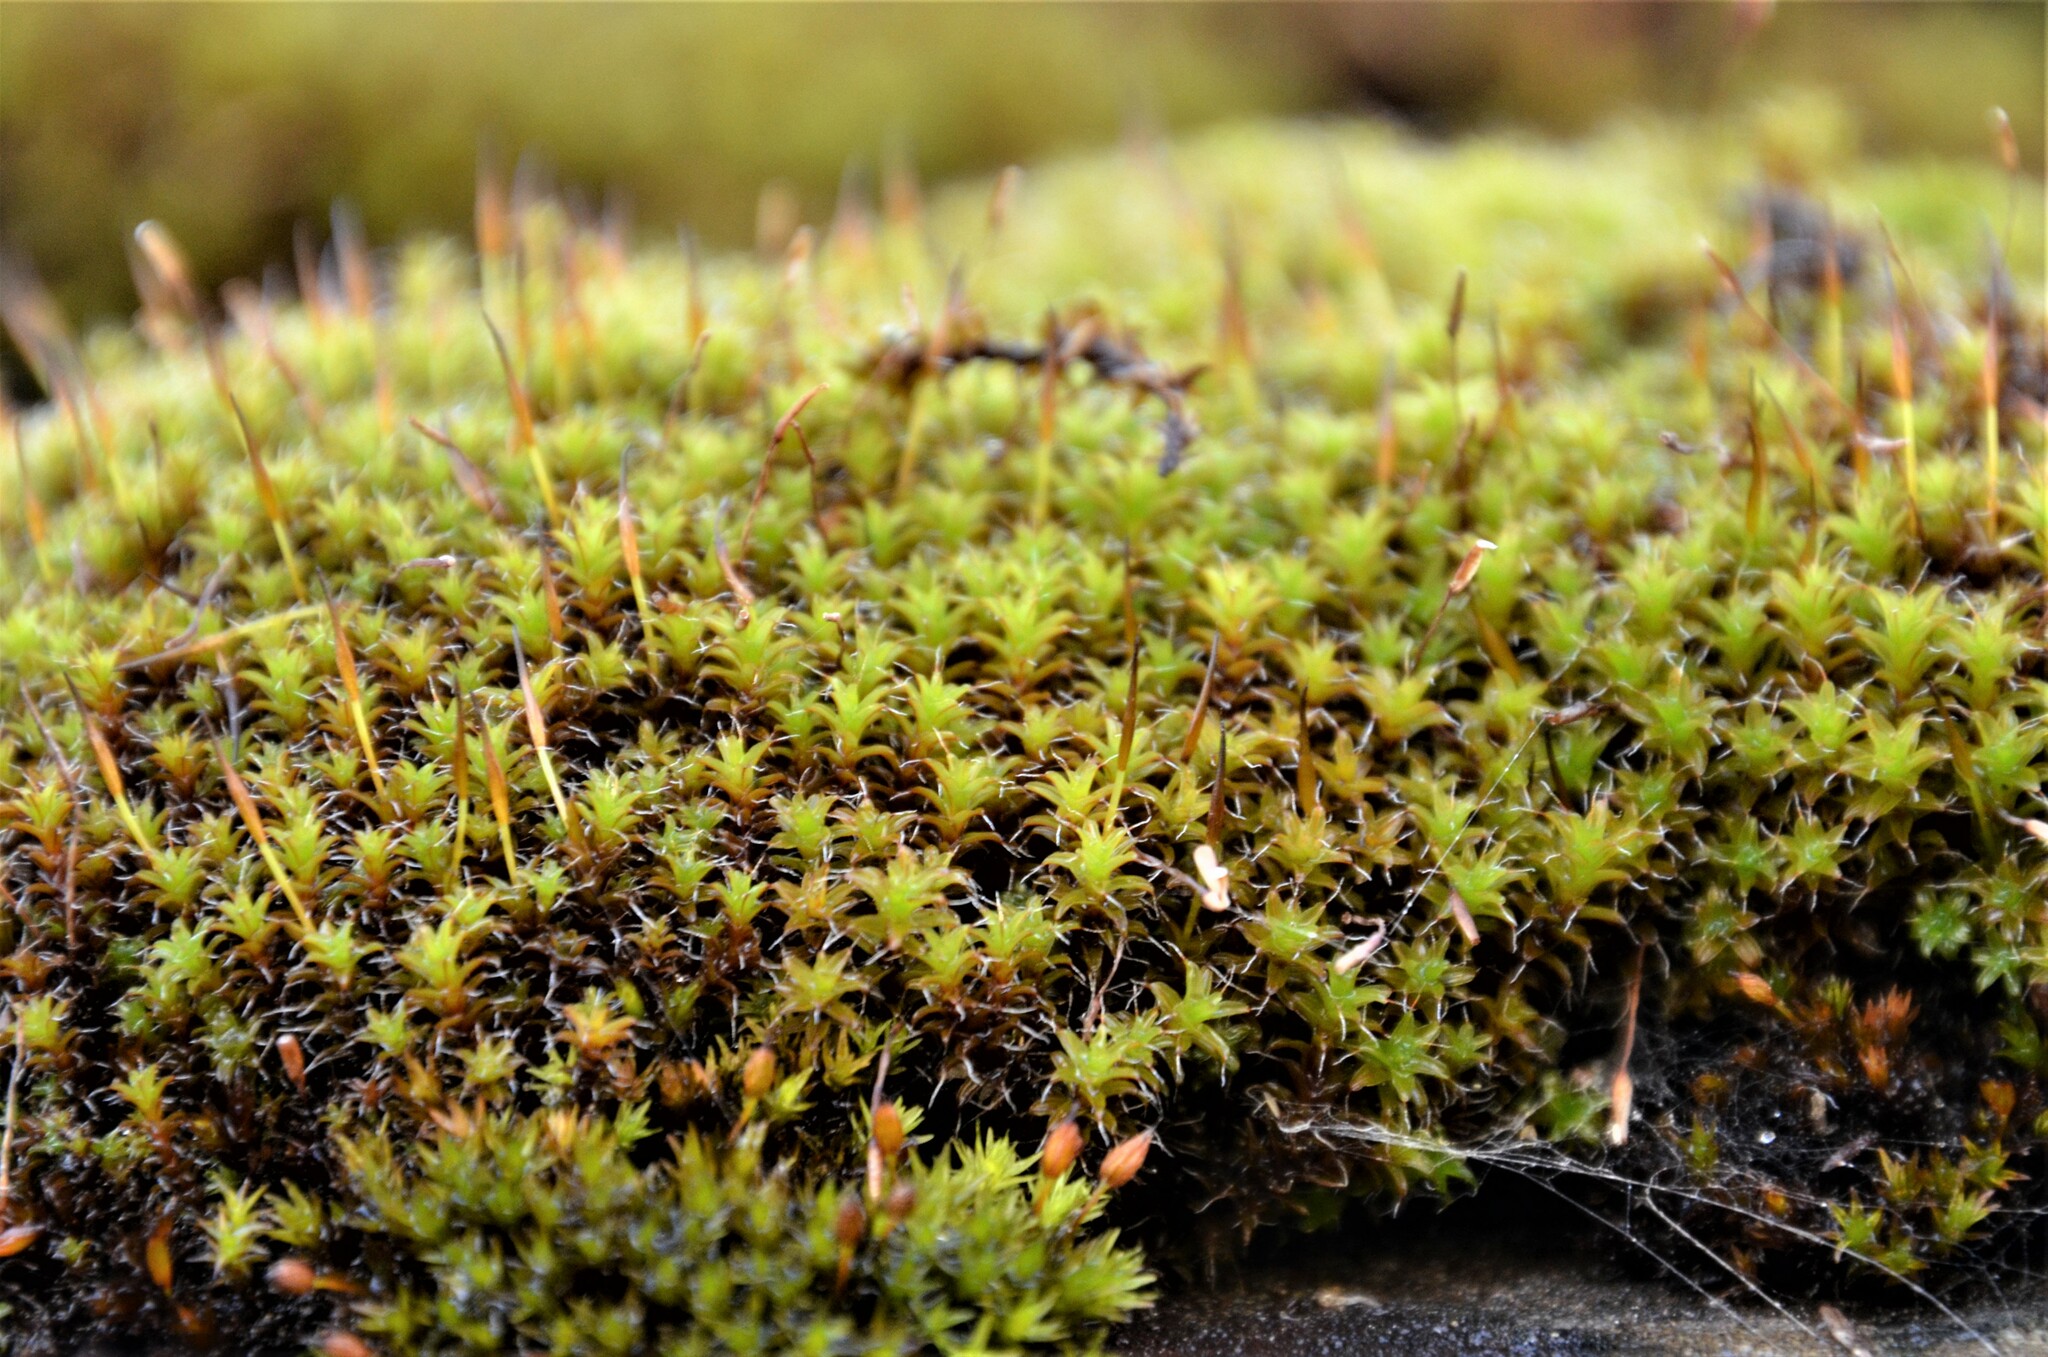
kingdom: Plantae
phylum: Bryophyta
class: Bryopsida
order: Pottiales
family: Pottiaceae
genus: Syntrichia
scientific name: Syntrichia ruralis
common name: Sidewalk screw moss
